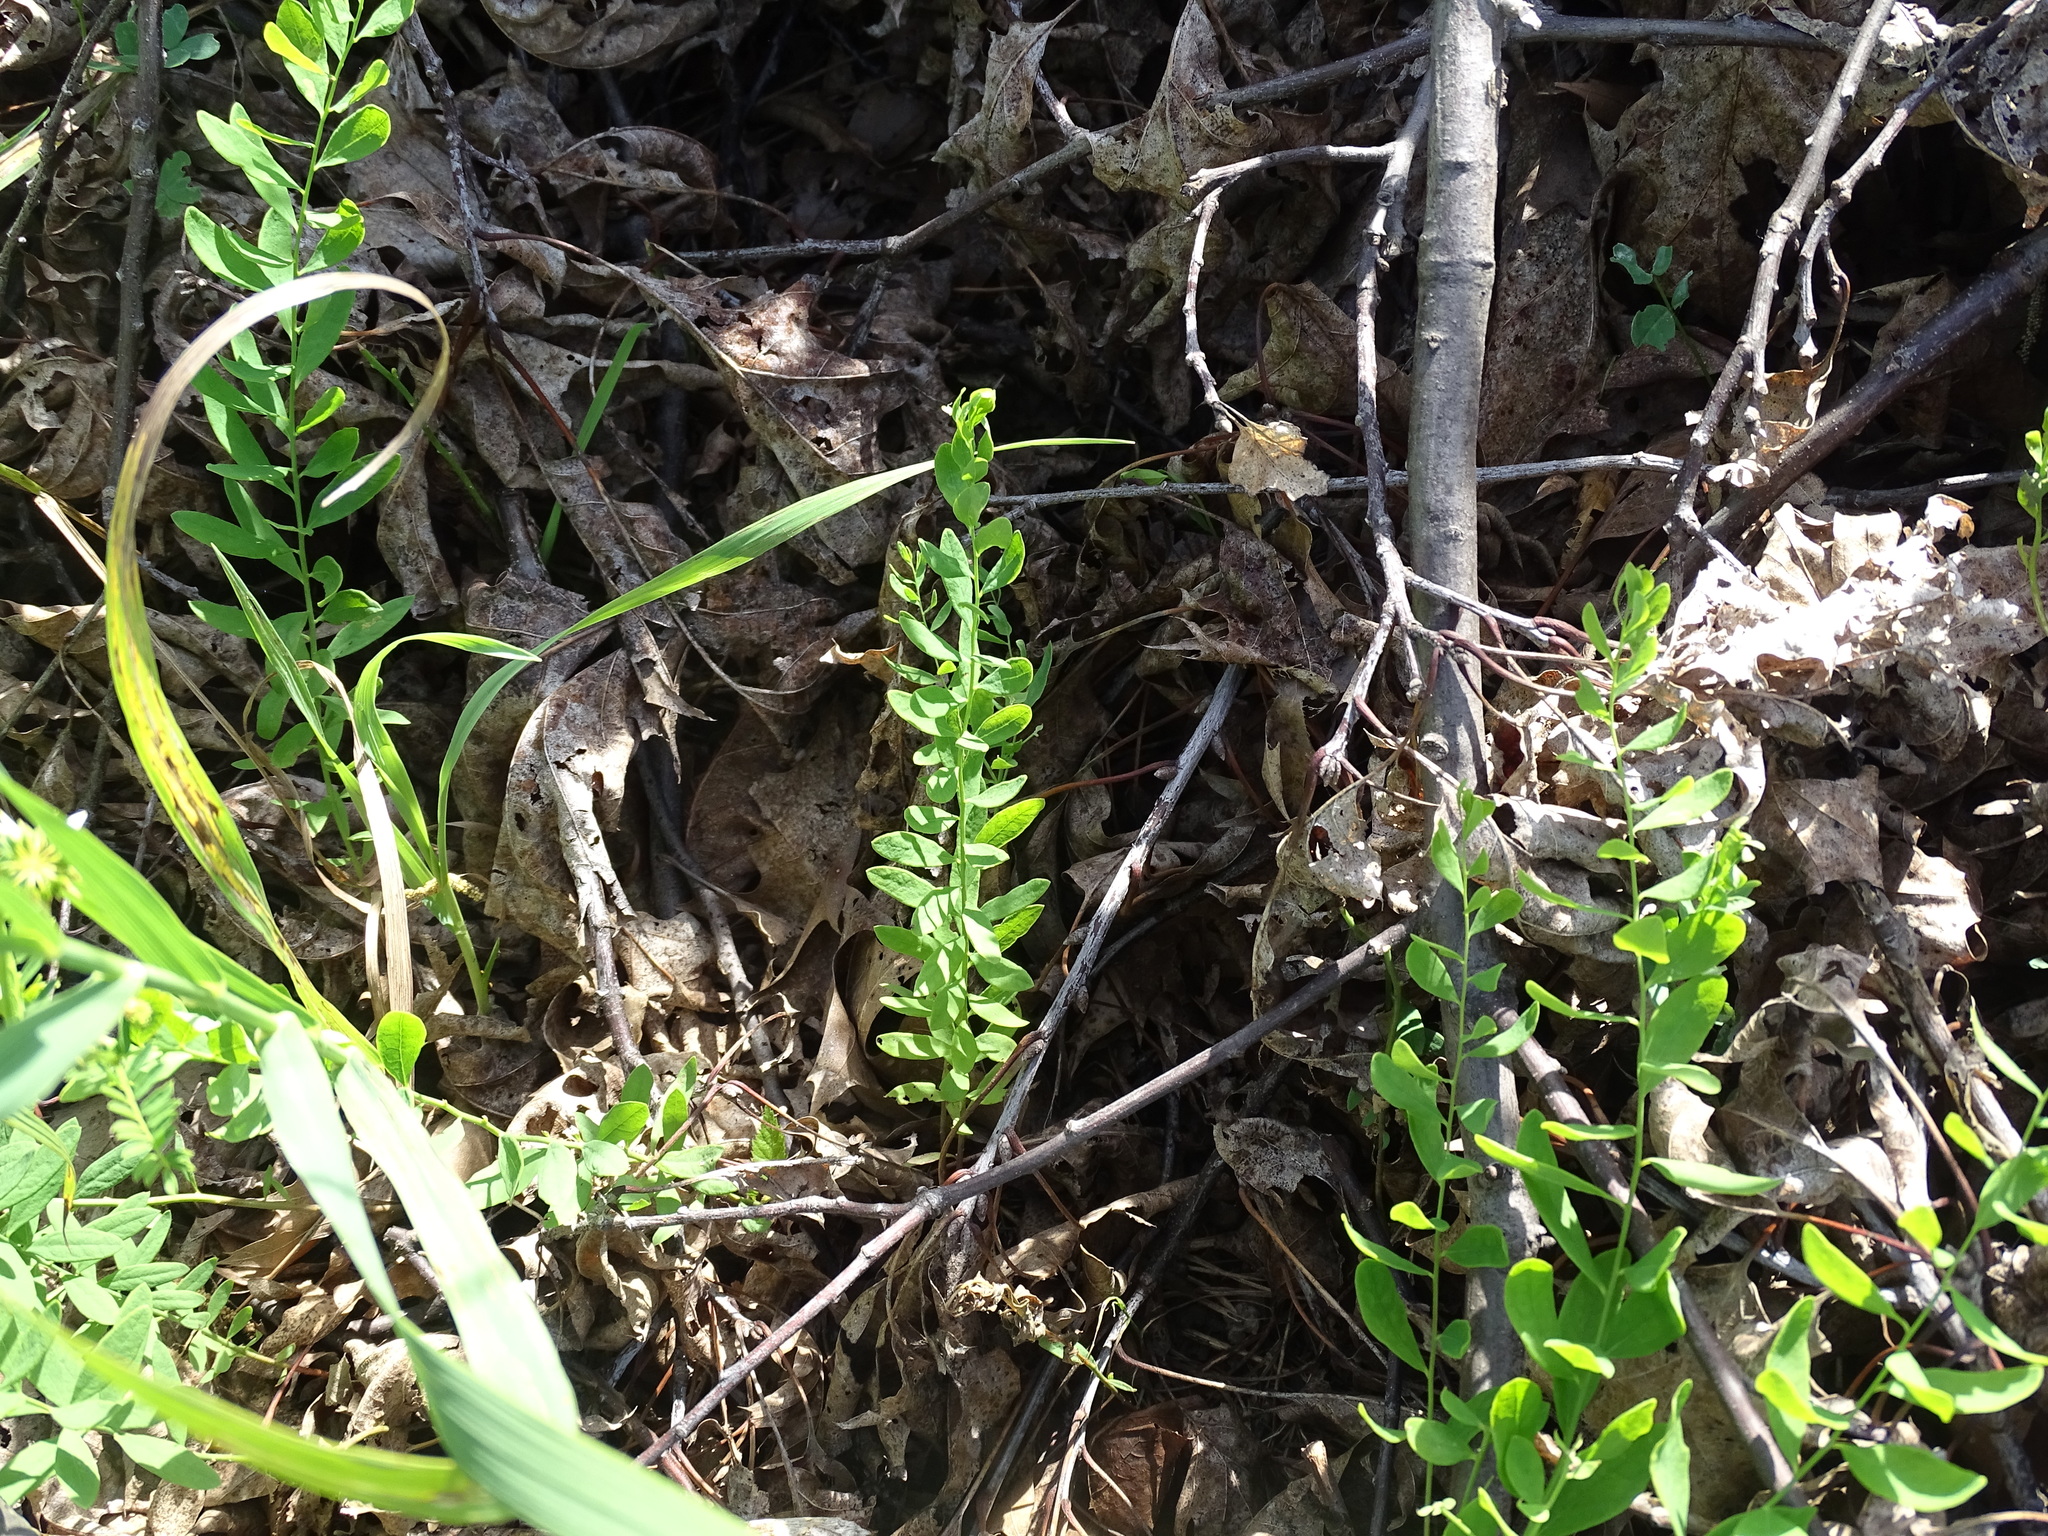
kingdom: Plantae
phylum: Tracheophyta
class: Magnoliopsida
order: Santalales
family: Comandraceae
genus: Comandra
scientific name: Comandra umbellata
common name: Bastard toadflax
